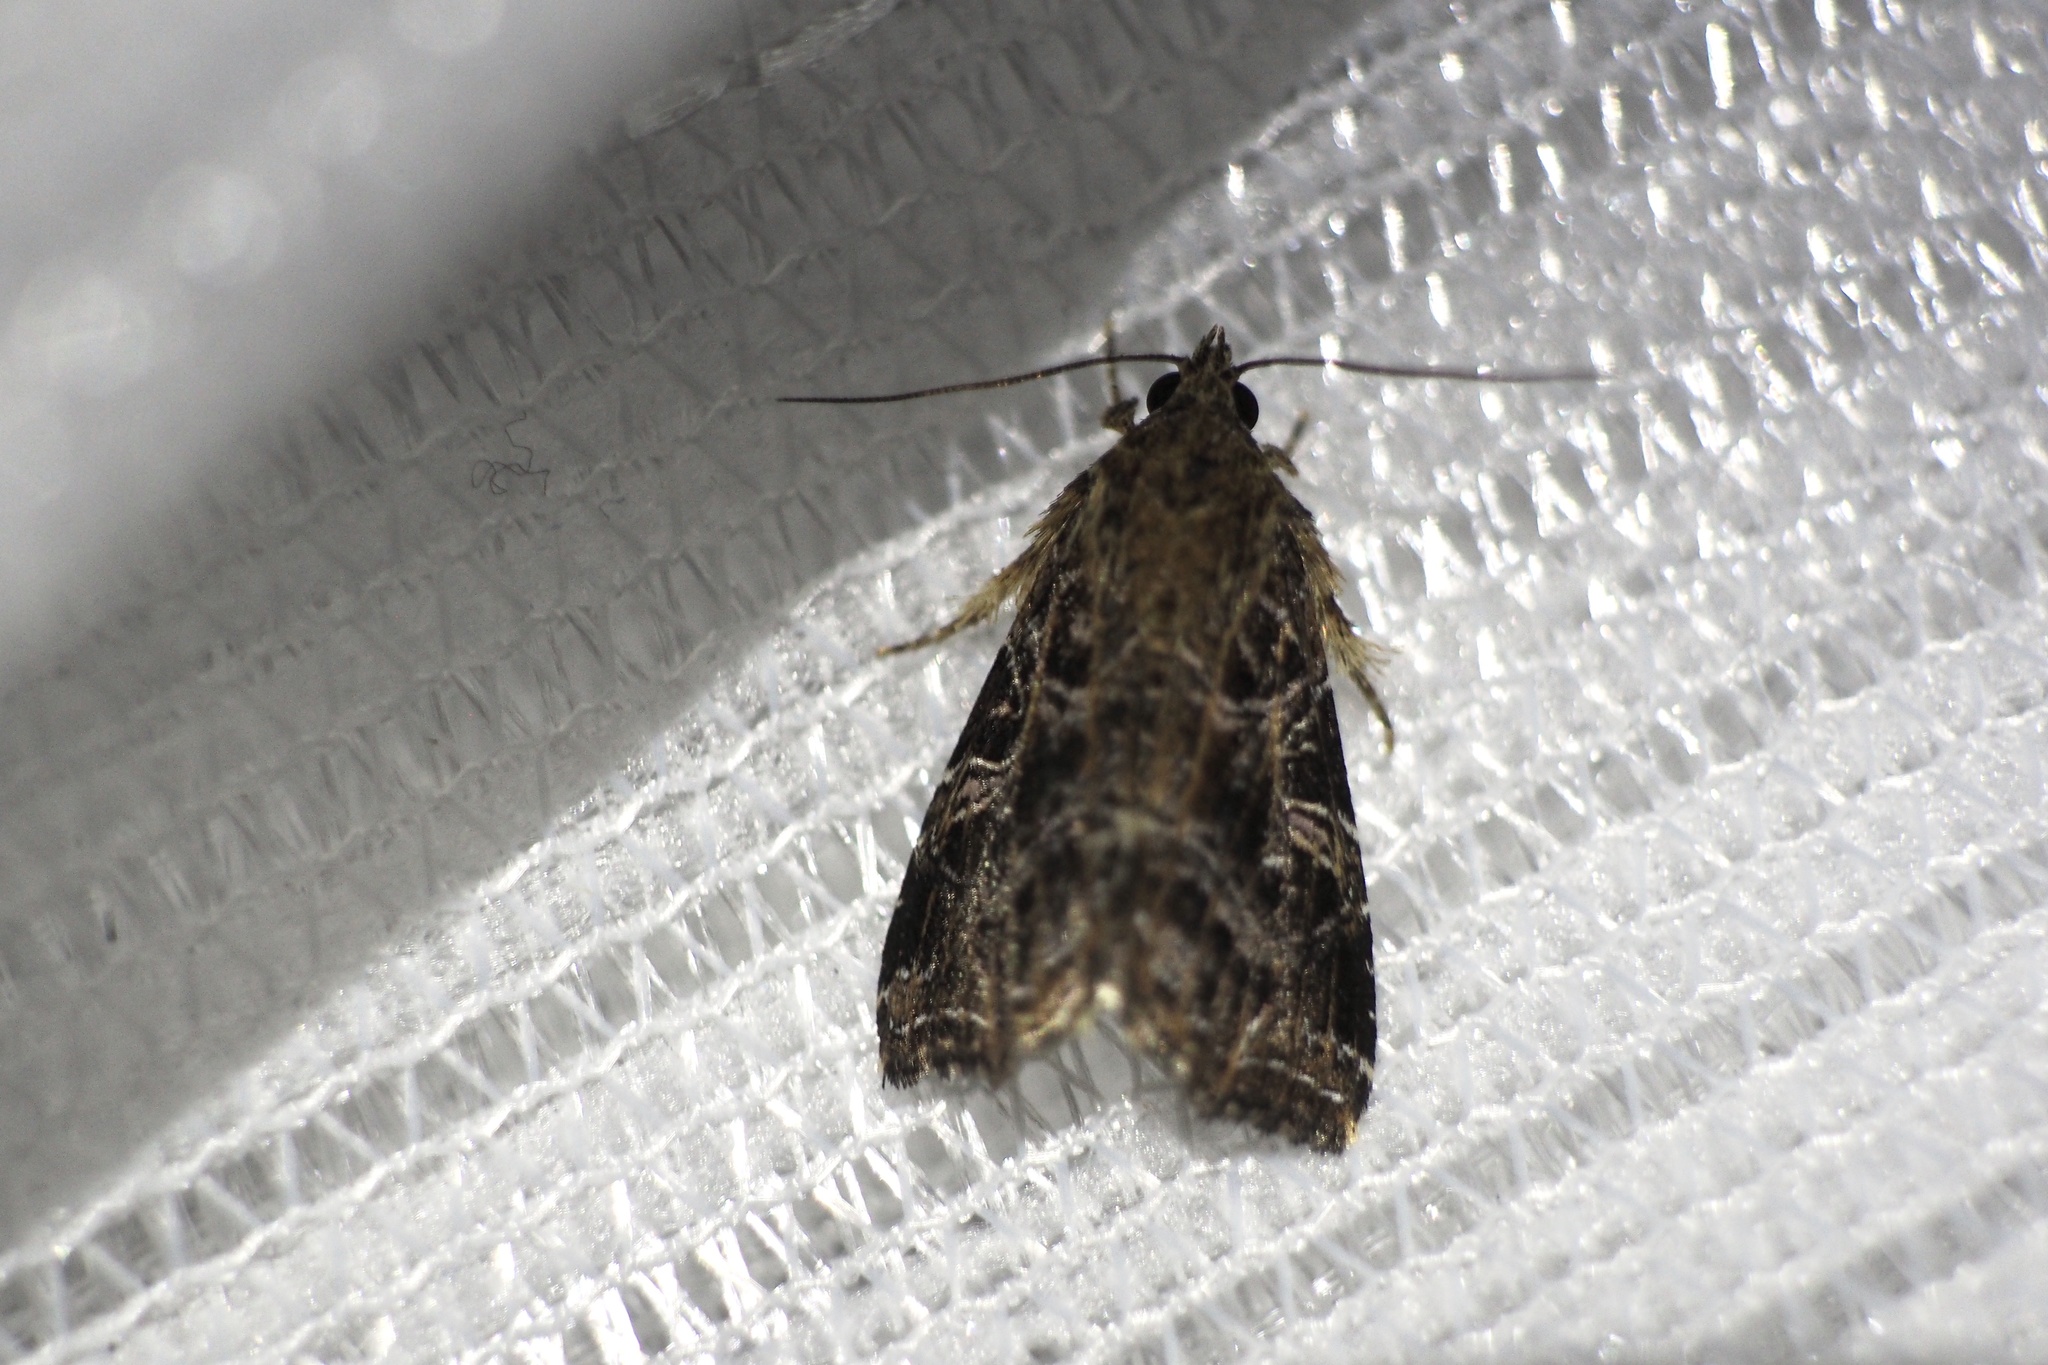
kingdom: Animalia
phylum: Arthropoda
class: Insecta
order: Lepidoptera
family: Noctuidae
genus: Callopistria
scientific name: Callopistria pulchrilinea
